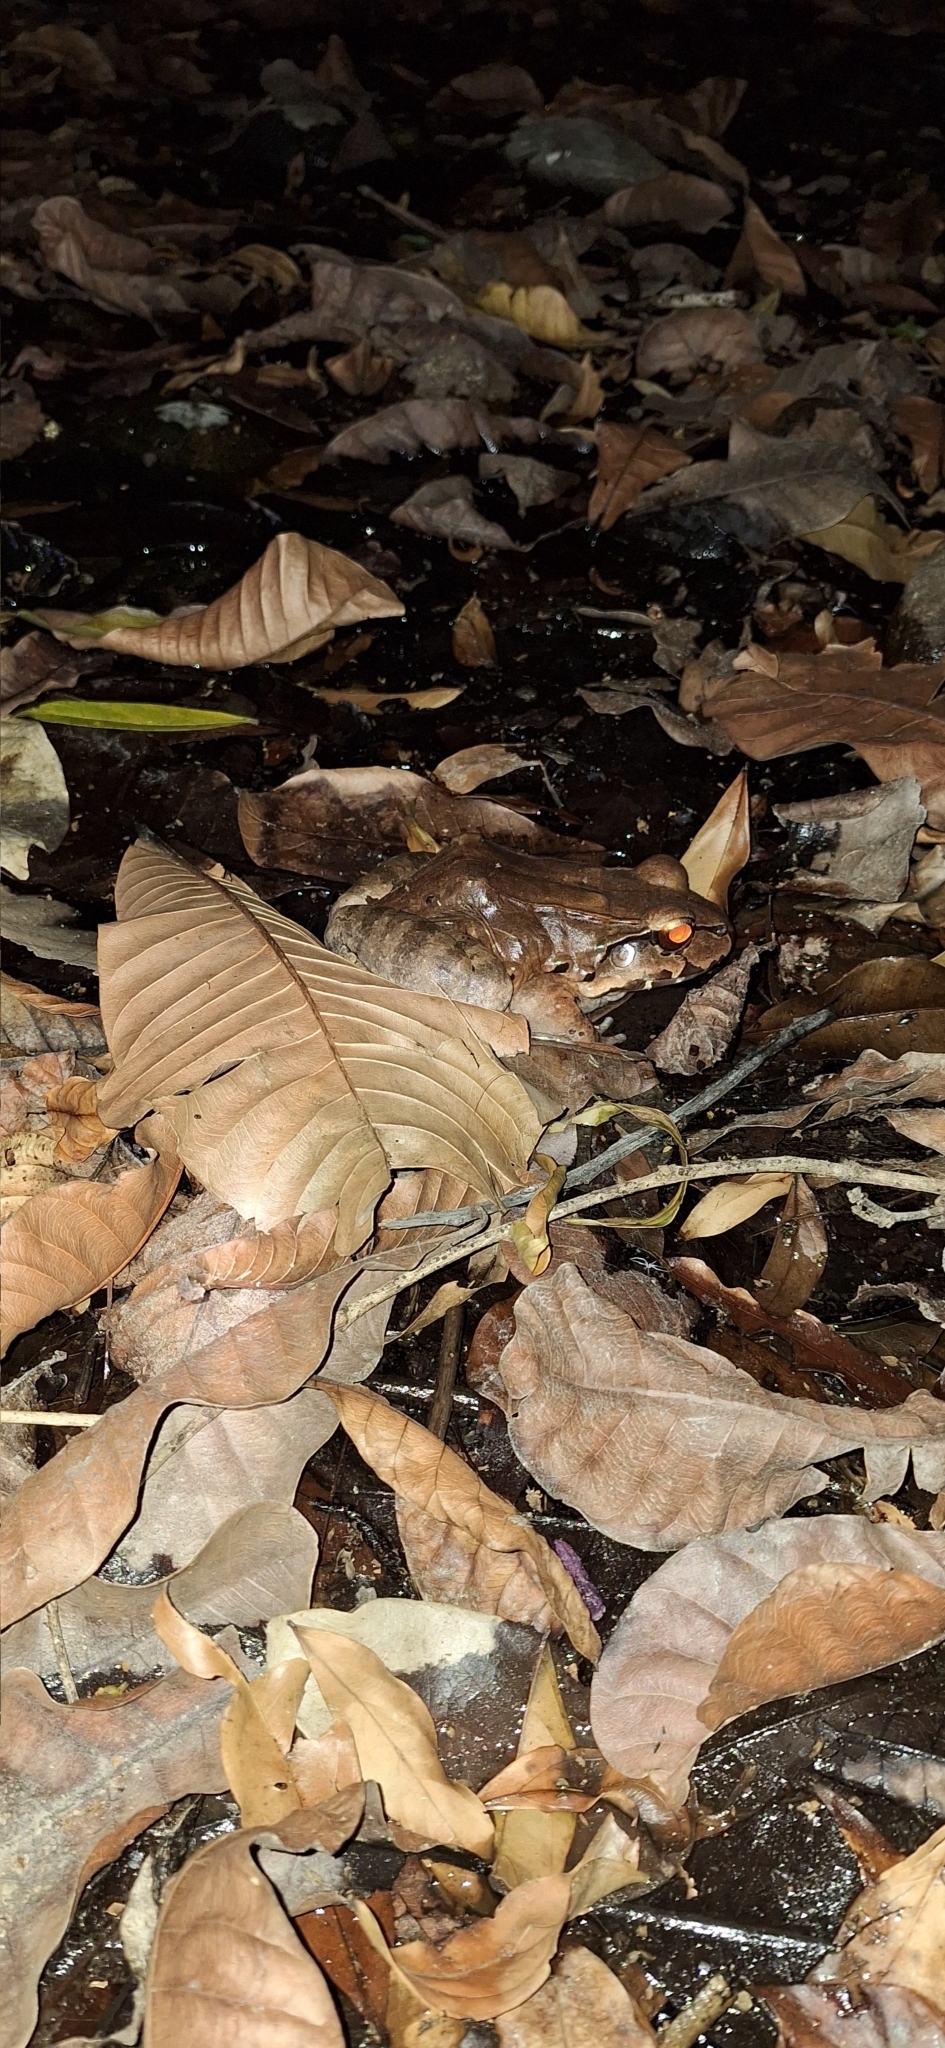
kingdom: Animalia
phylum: Chordata
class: Amphibia
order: Anura
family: Leptodactylidae
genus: Leptodactylus
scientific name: Leptodactylus savagei
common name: Savage's thin-toed frog
